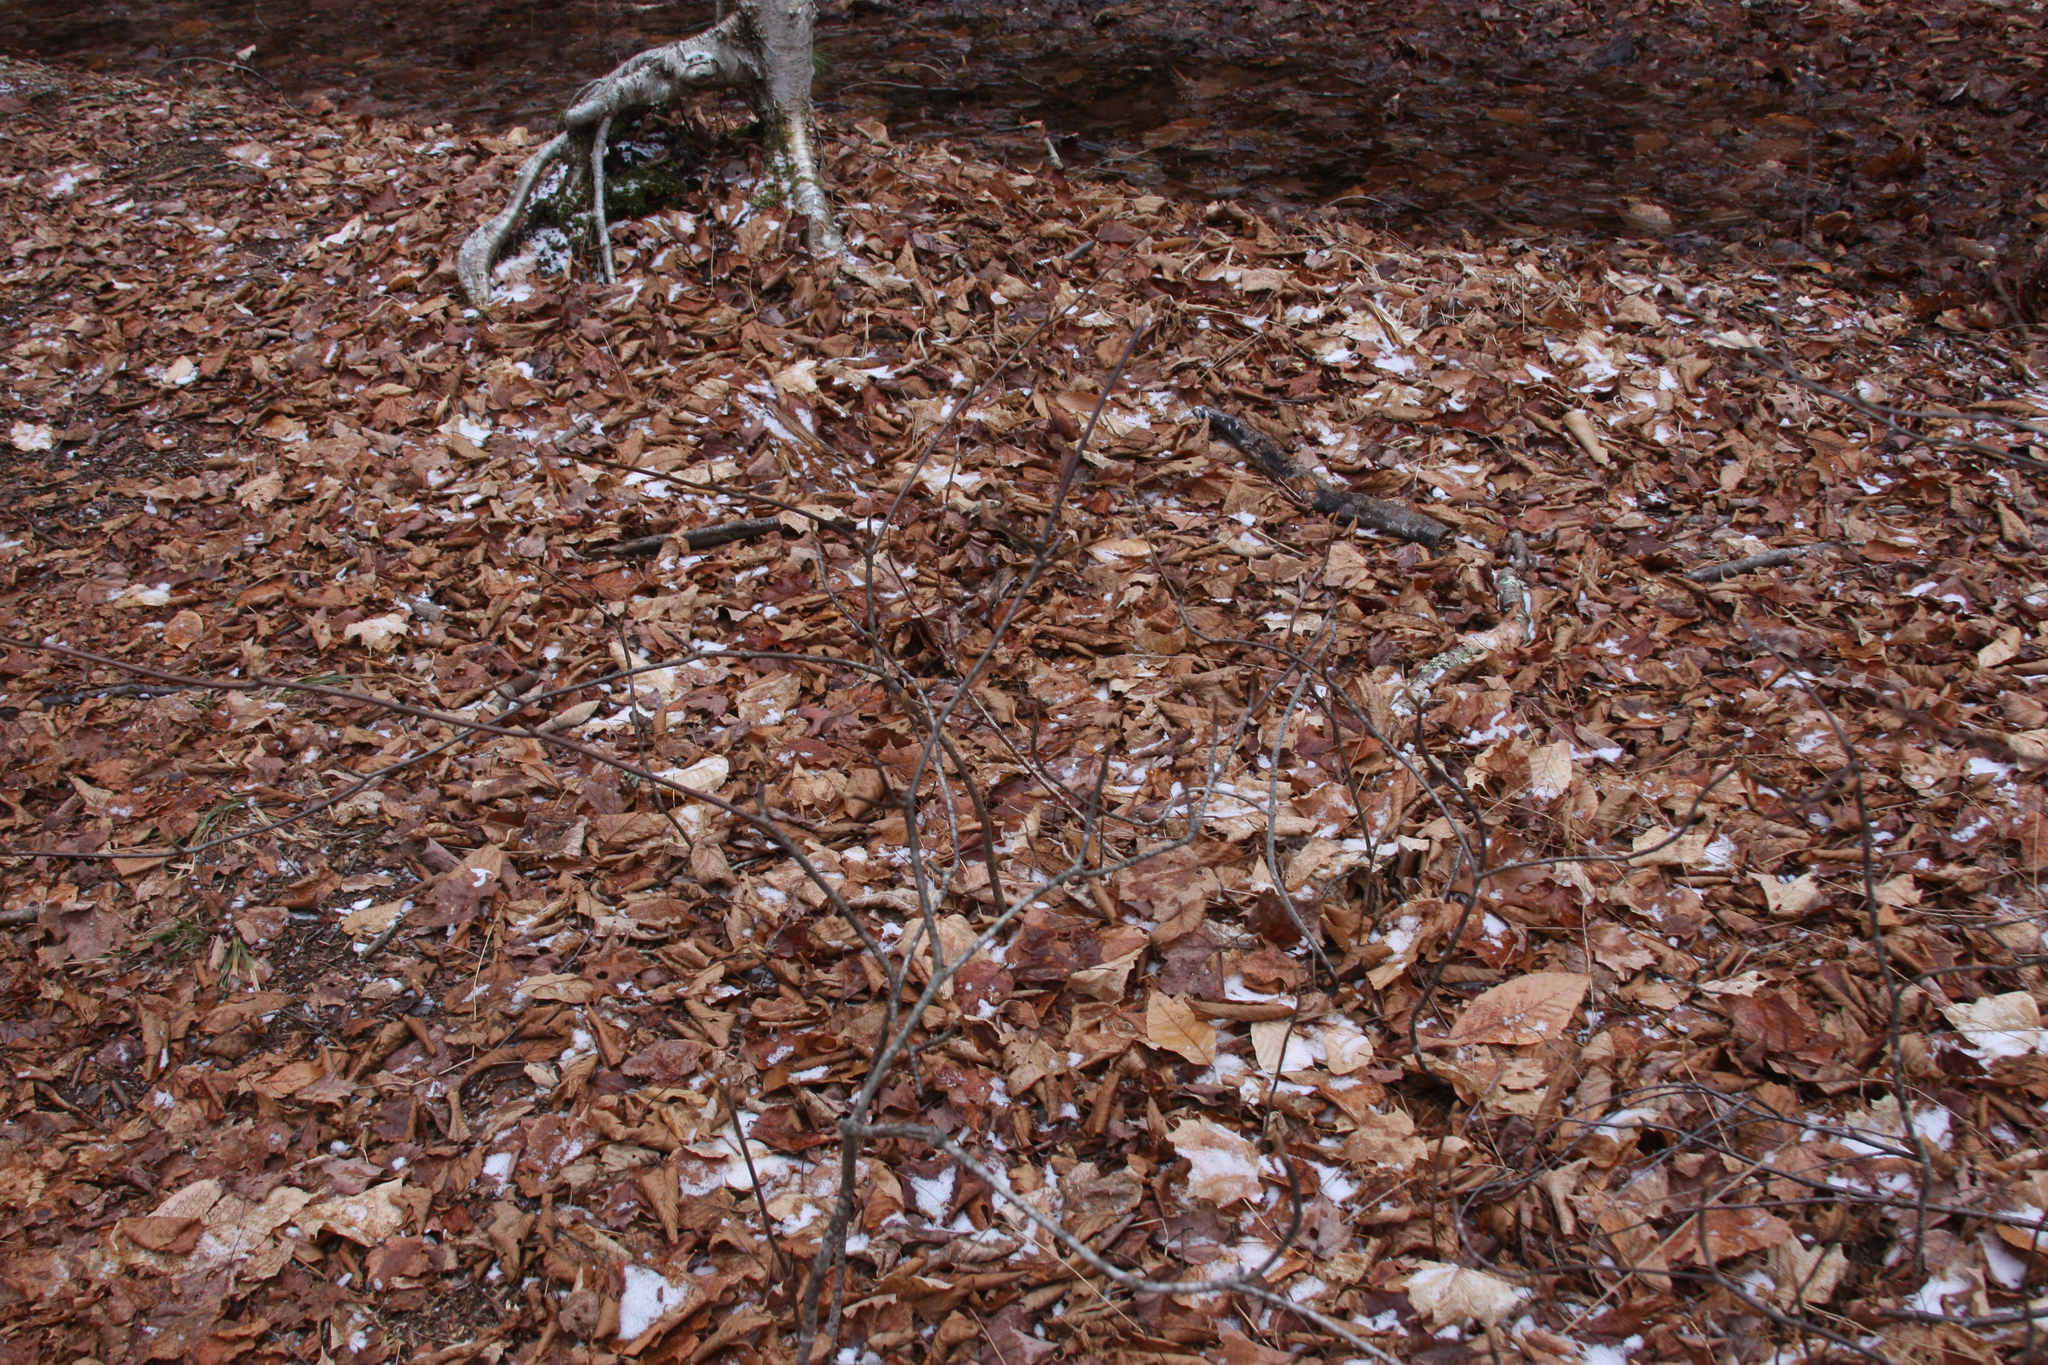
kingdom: Plantae
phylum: Tracheophyta
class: Magnoliopsida
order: Dipsacales
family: Viburnaceae
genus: Viburnum
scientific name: Viburnum lantanoides
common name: Hobblebush
